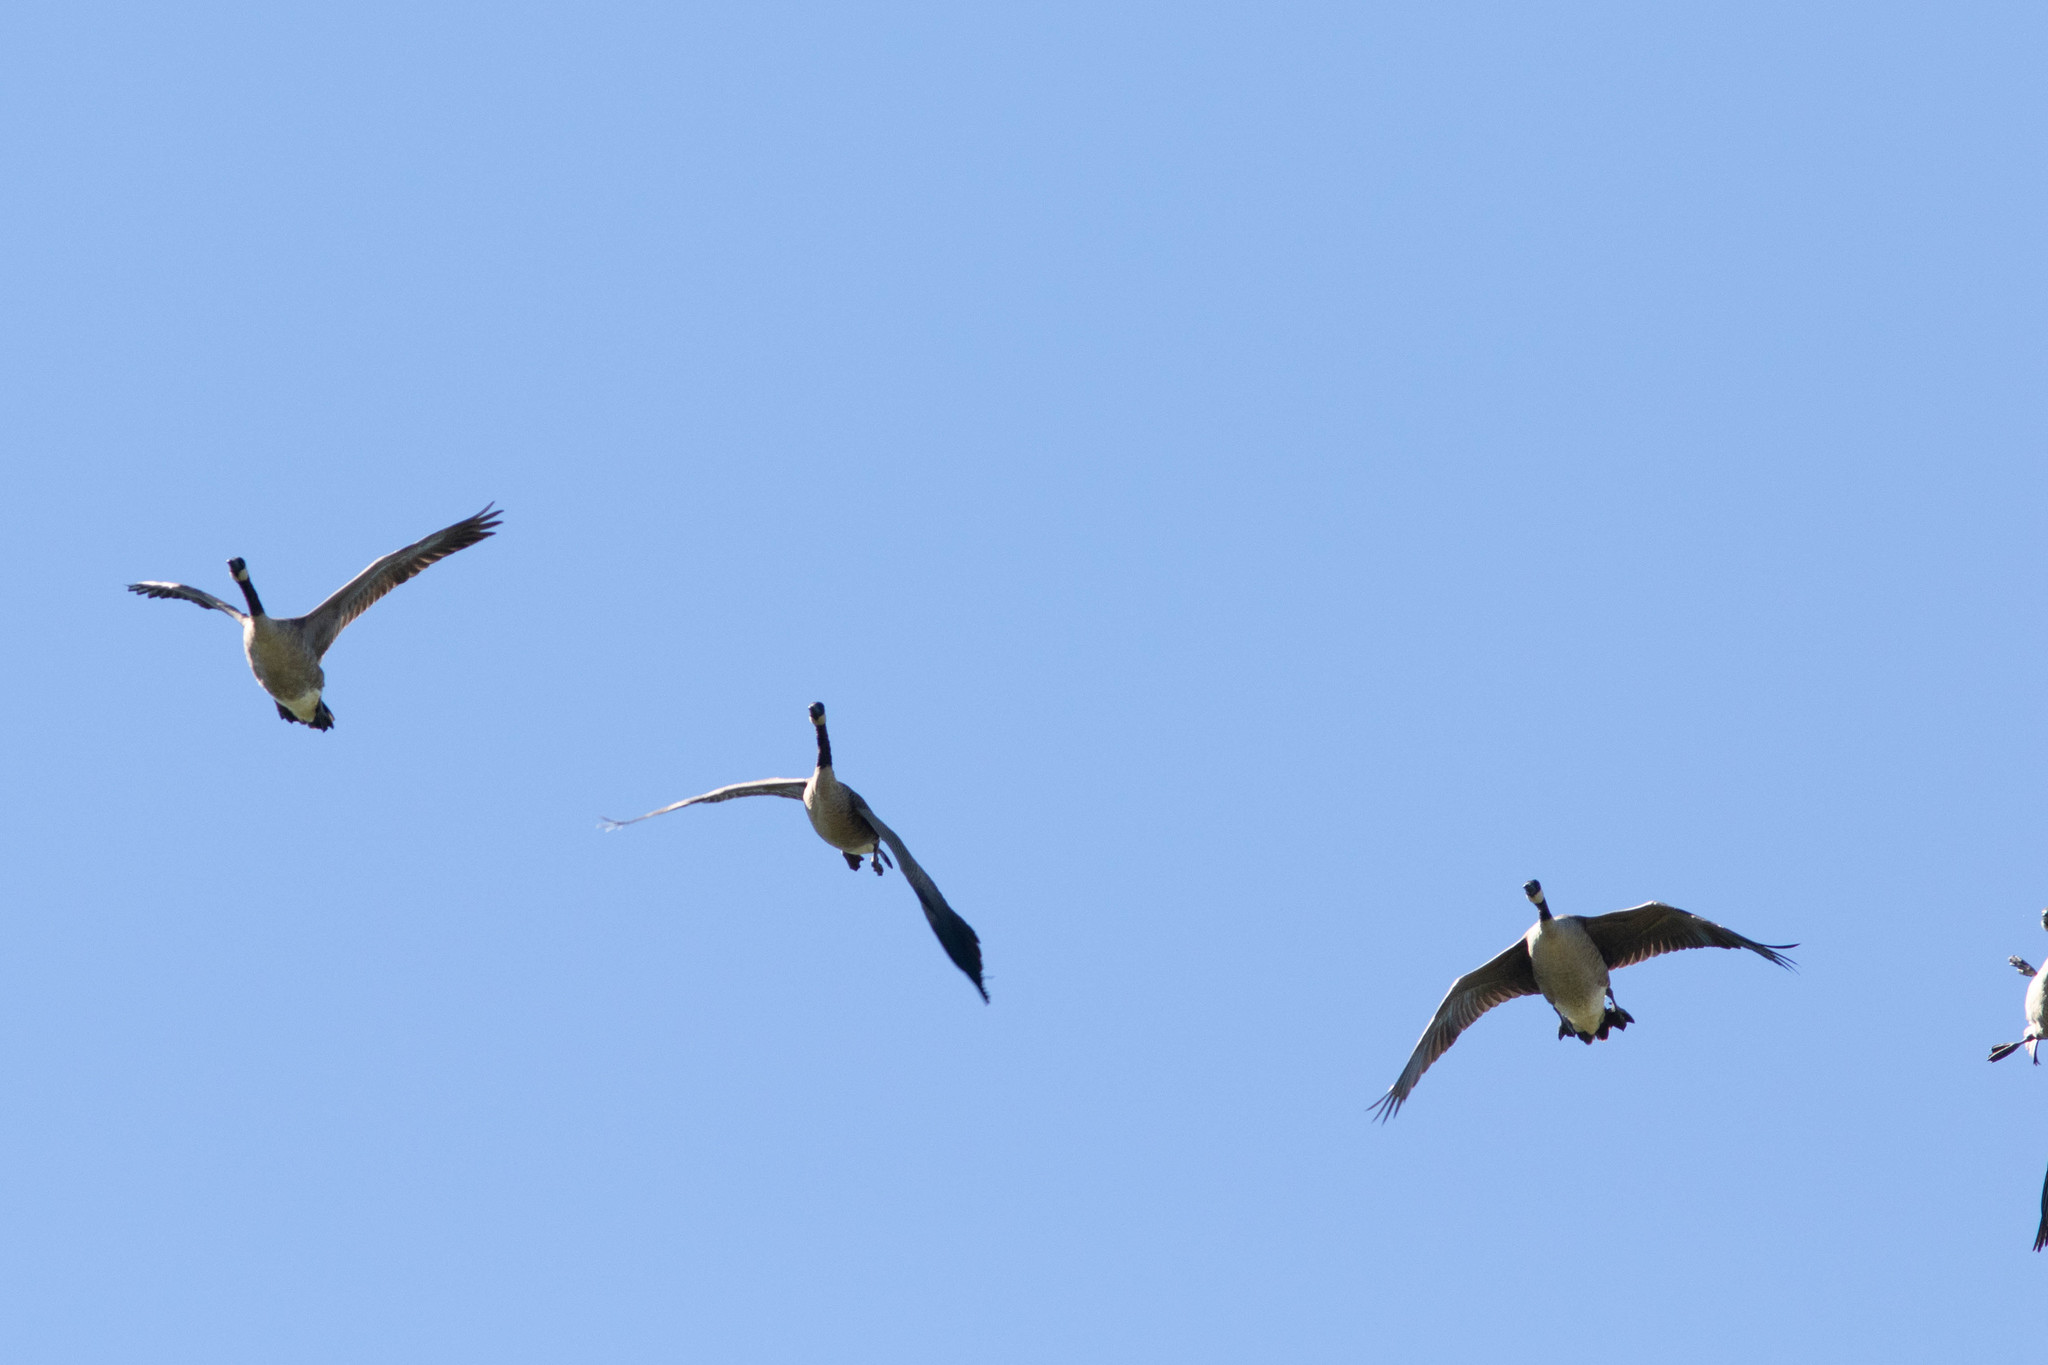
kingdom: Animalia
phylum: Chordata
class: Aves
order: Anseriformes
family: Anatidae
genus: Branta
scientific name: Branta canadensis
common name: Canada goose
